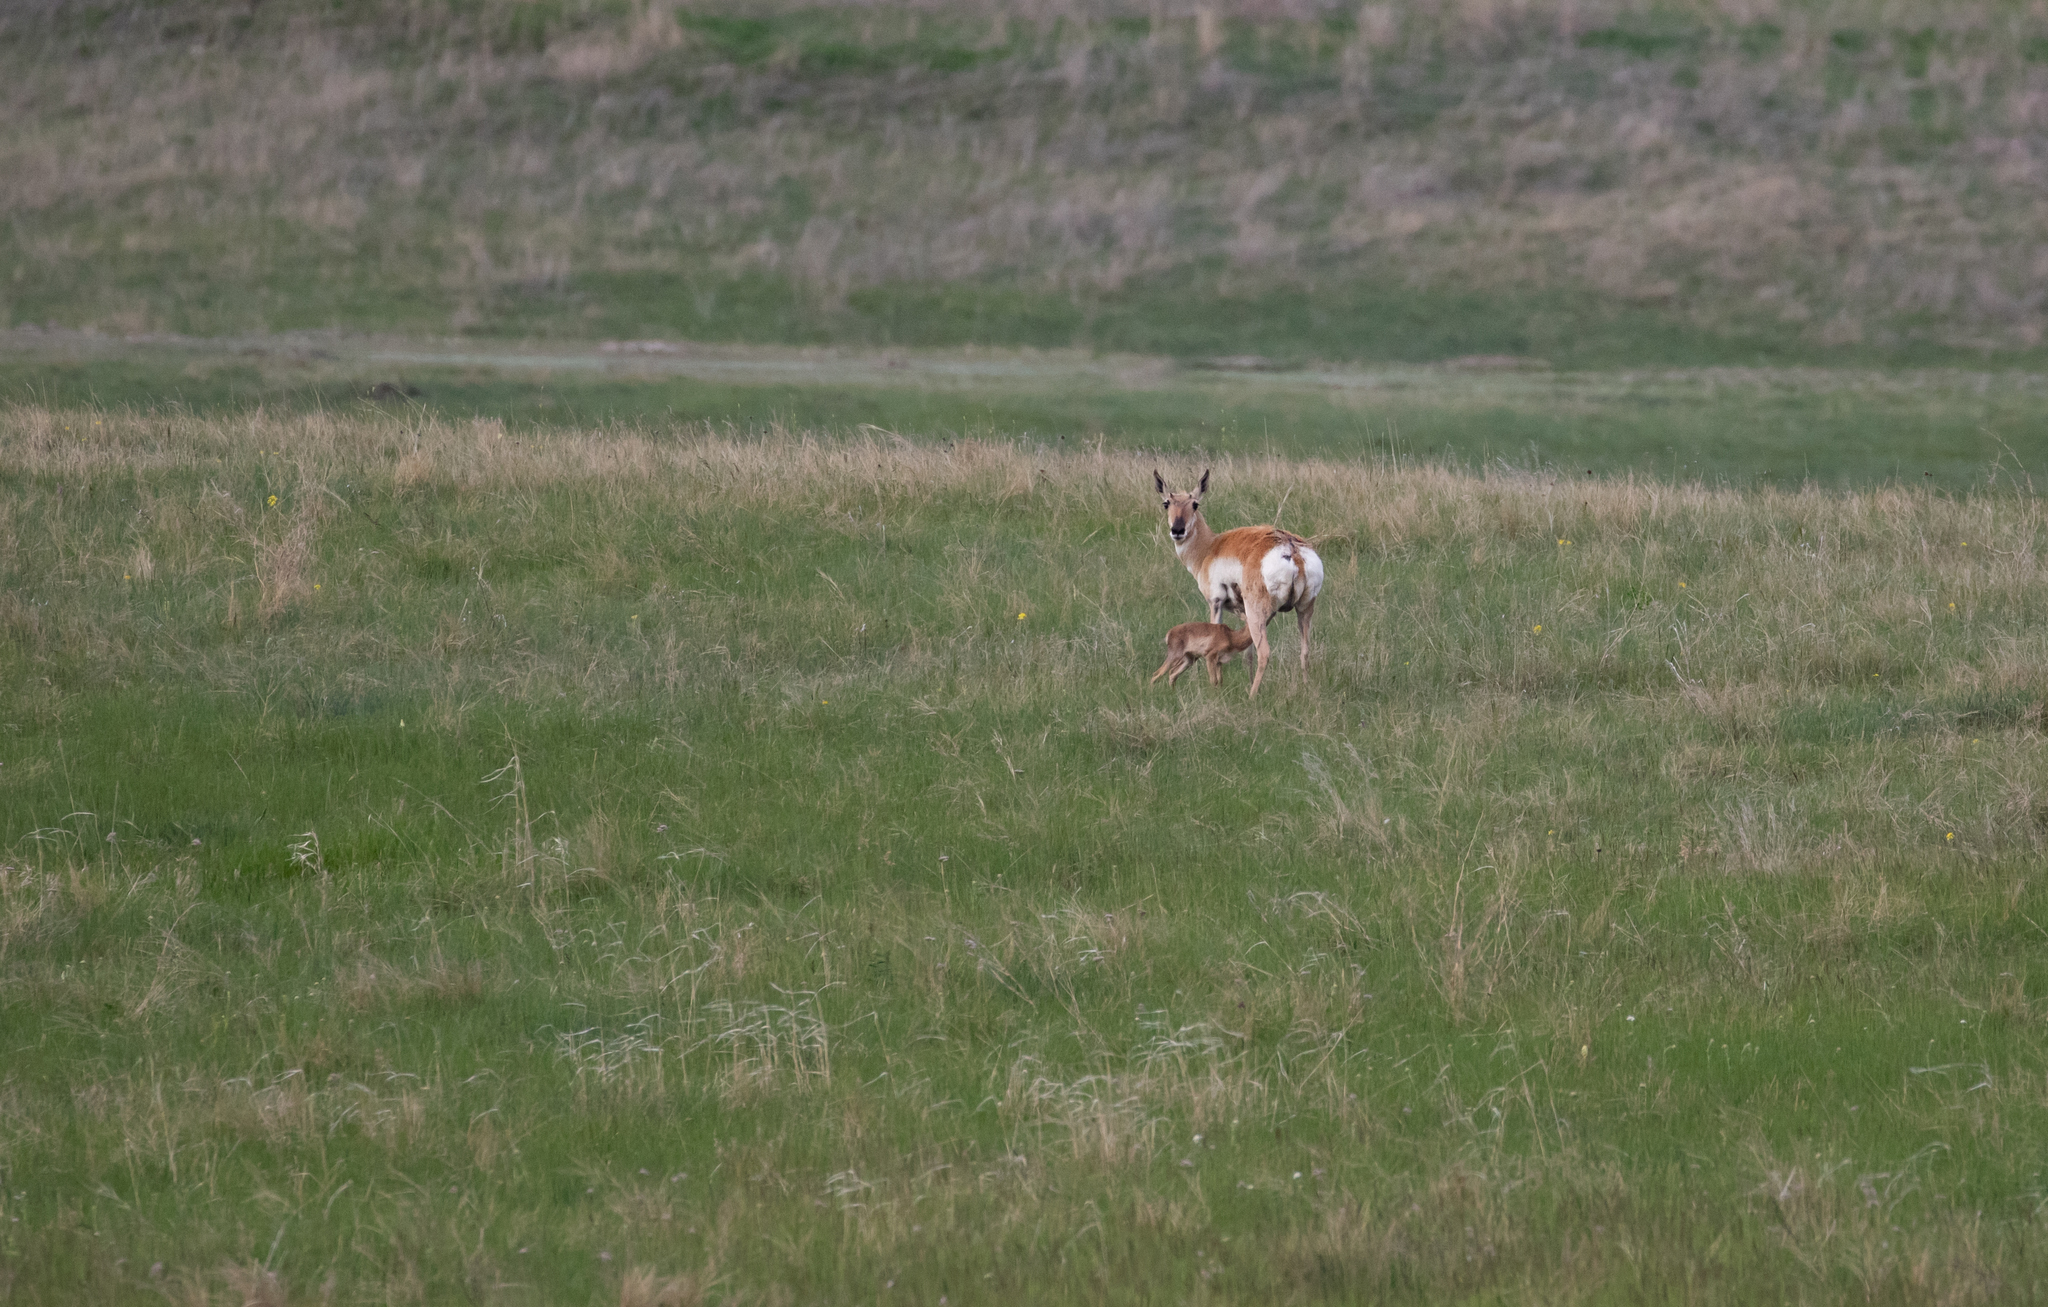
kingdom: Animalia
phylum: Chordata
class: Mammalia
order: Artiodactyla
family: Antilocapridae
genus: Antilocapra
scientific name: Antilocapra americana
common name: Pronghorn
